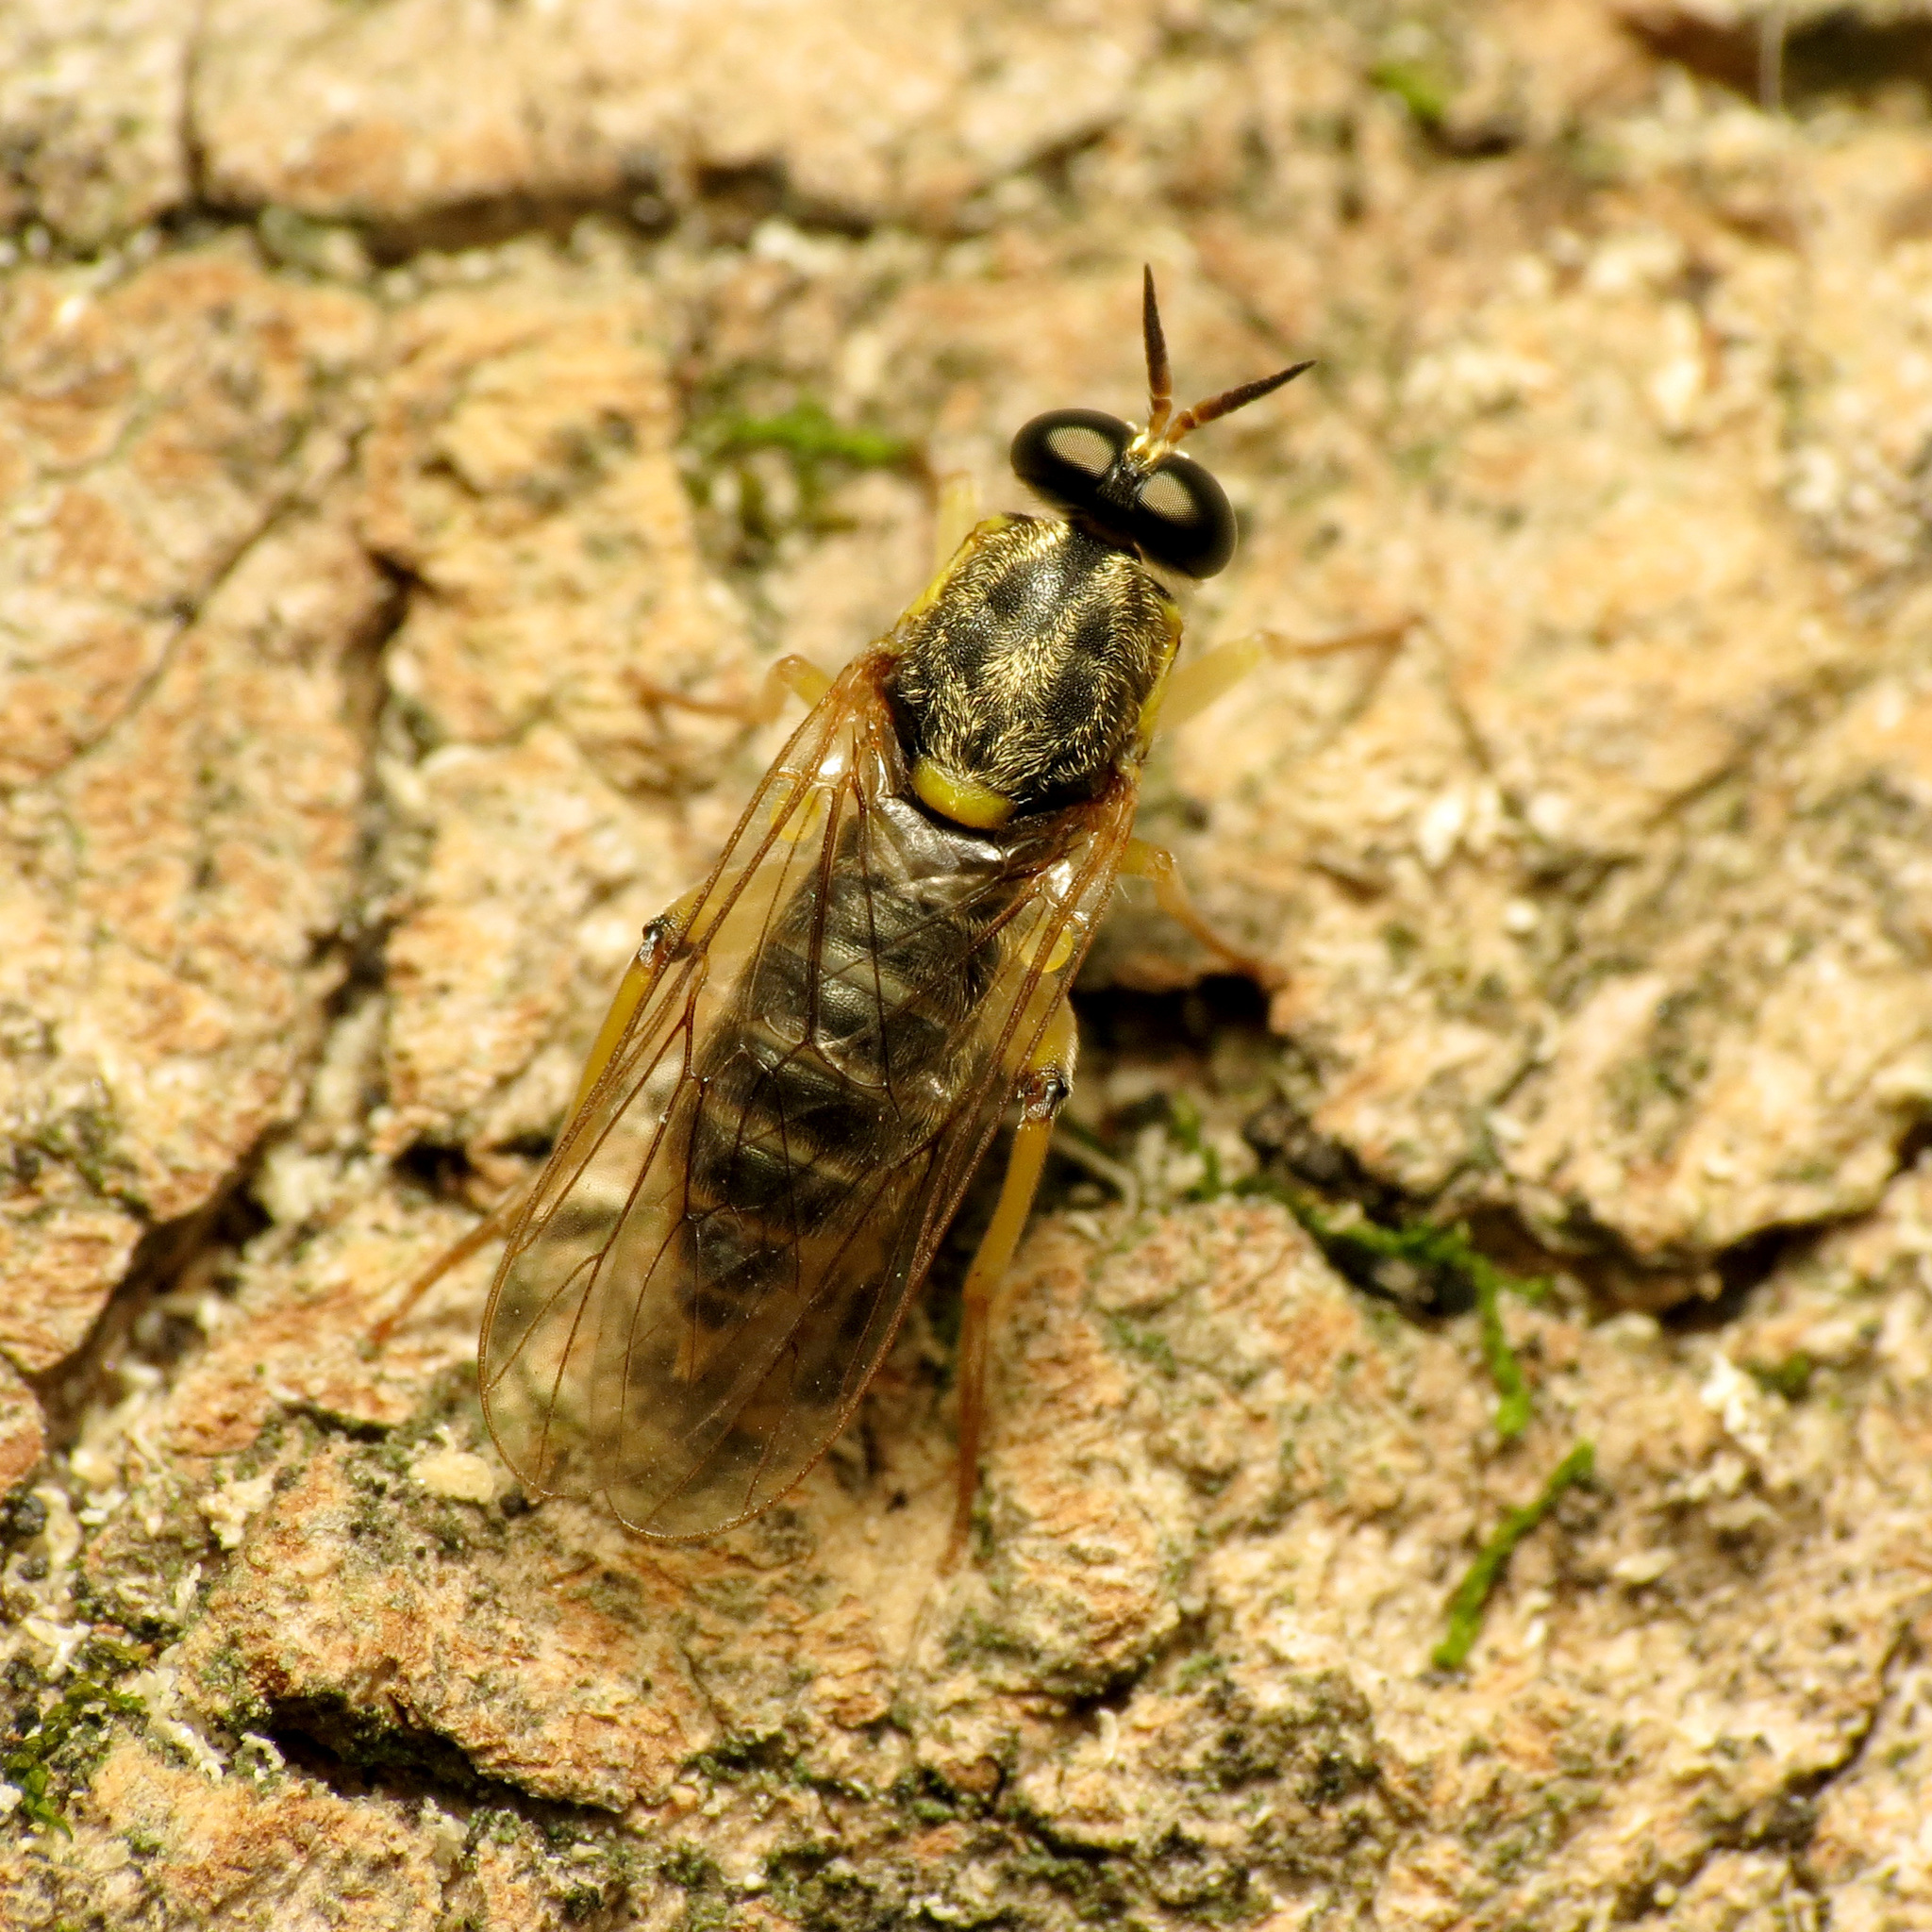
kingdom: Animalia
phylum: Arthropoda
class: Insecta
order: Diptera
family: Xylomyidae
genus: Solva
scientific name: Solva pallipes
